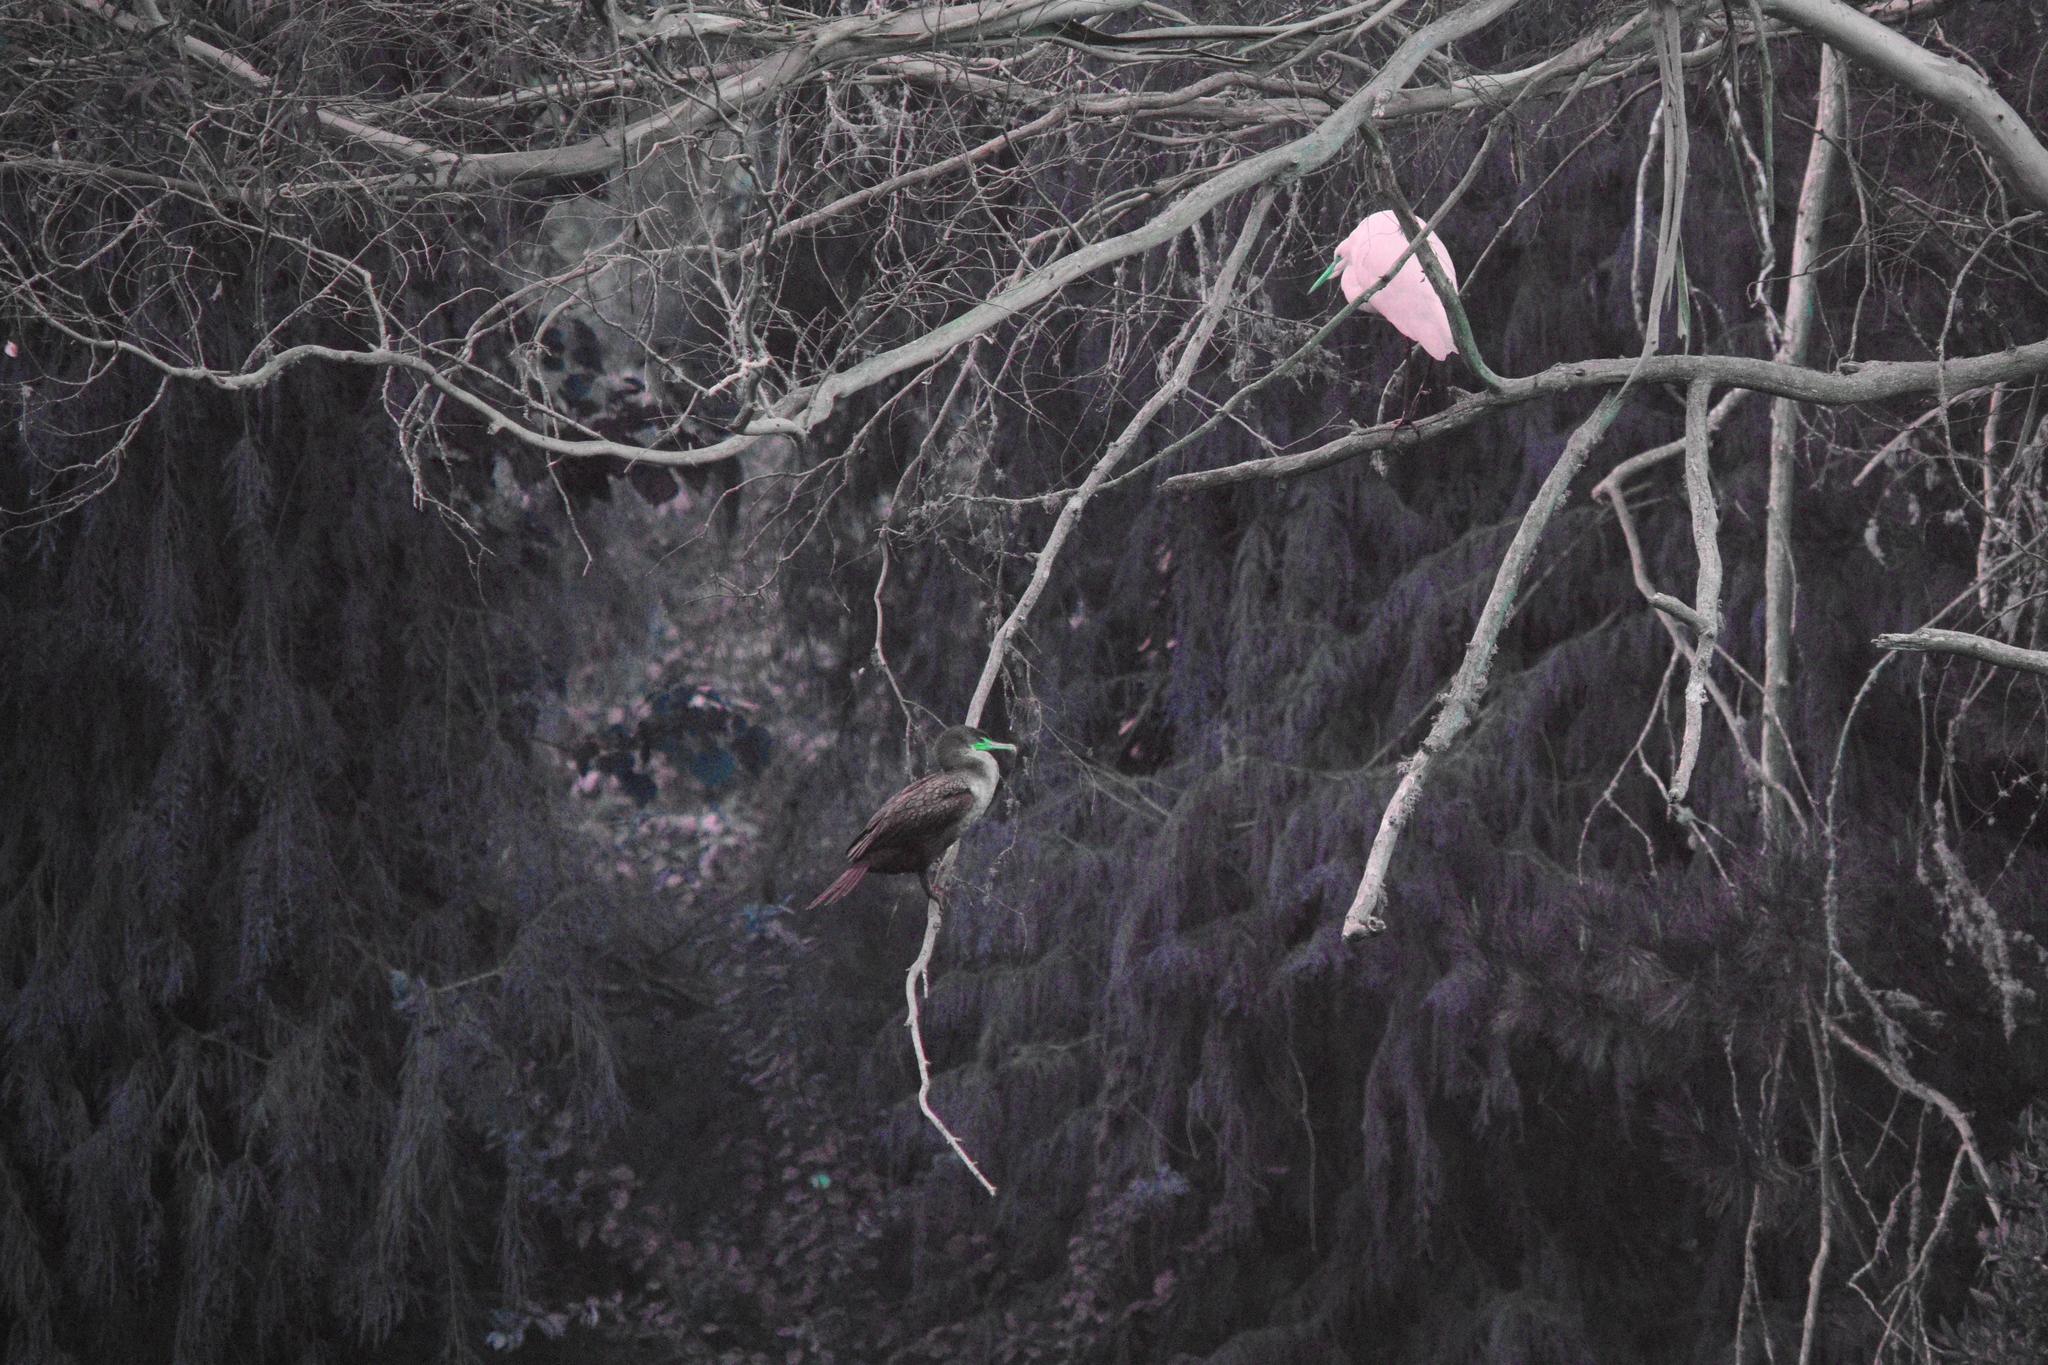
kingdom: Animalia
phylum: Chordata
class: Aves
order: Pelecaniformes
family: Ardeidae
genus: Ardea
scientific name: Ardea alba
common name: Great egret
